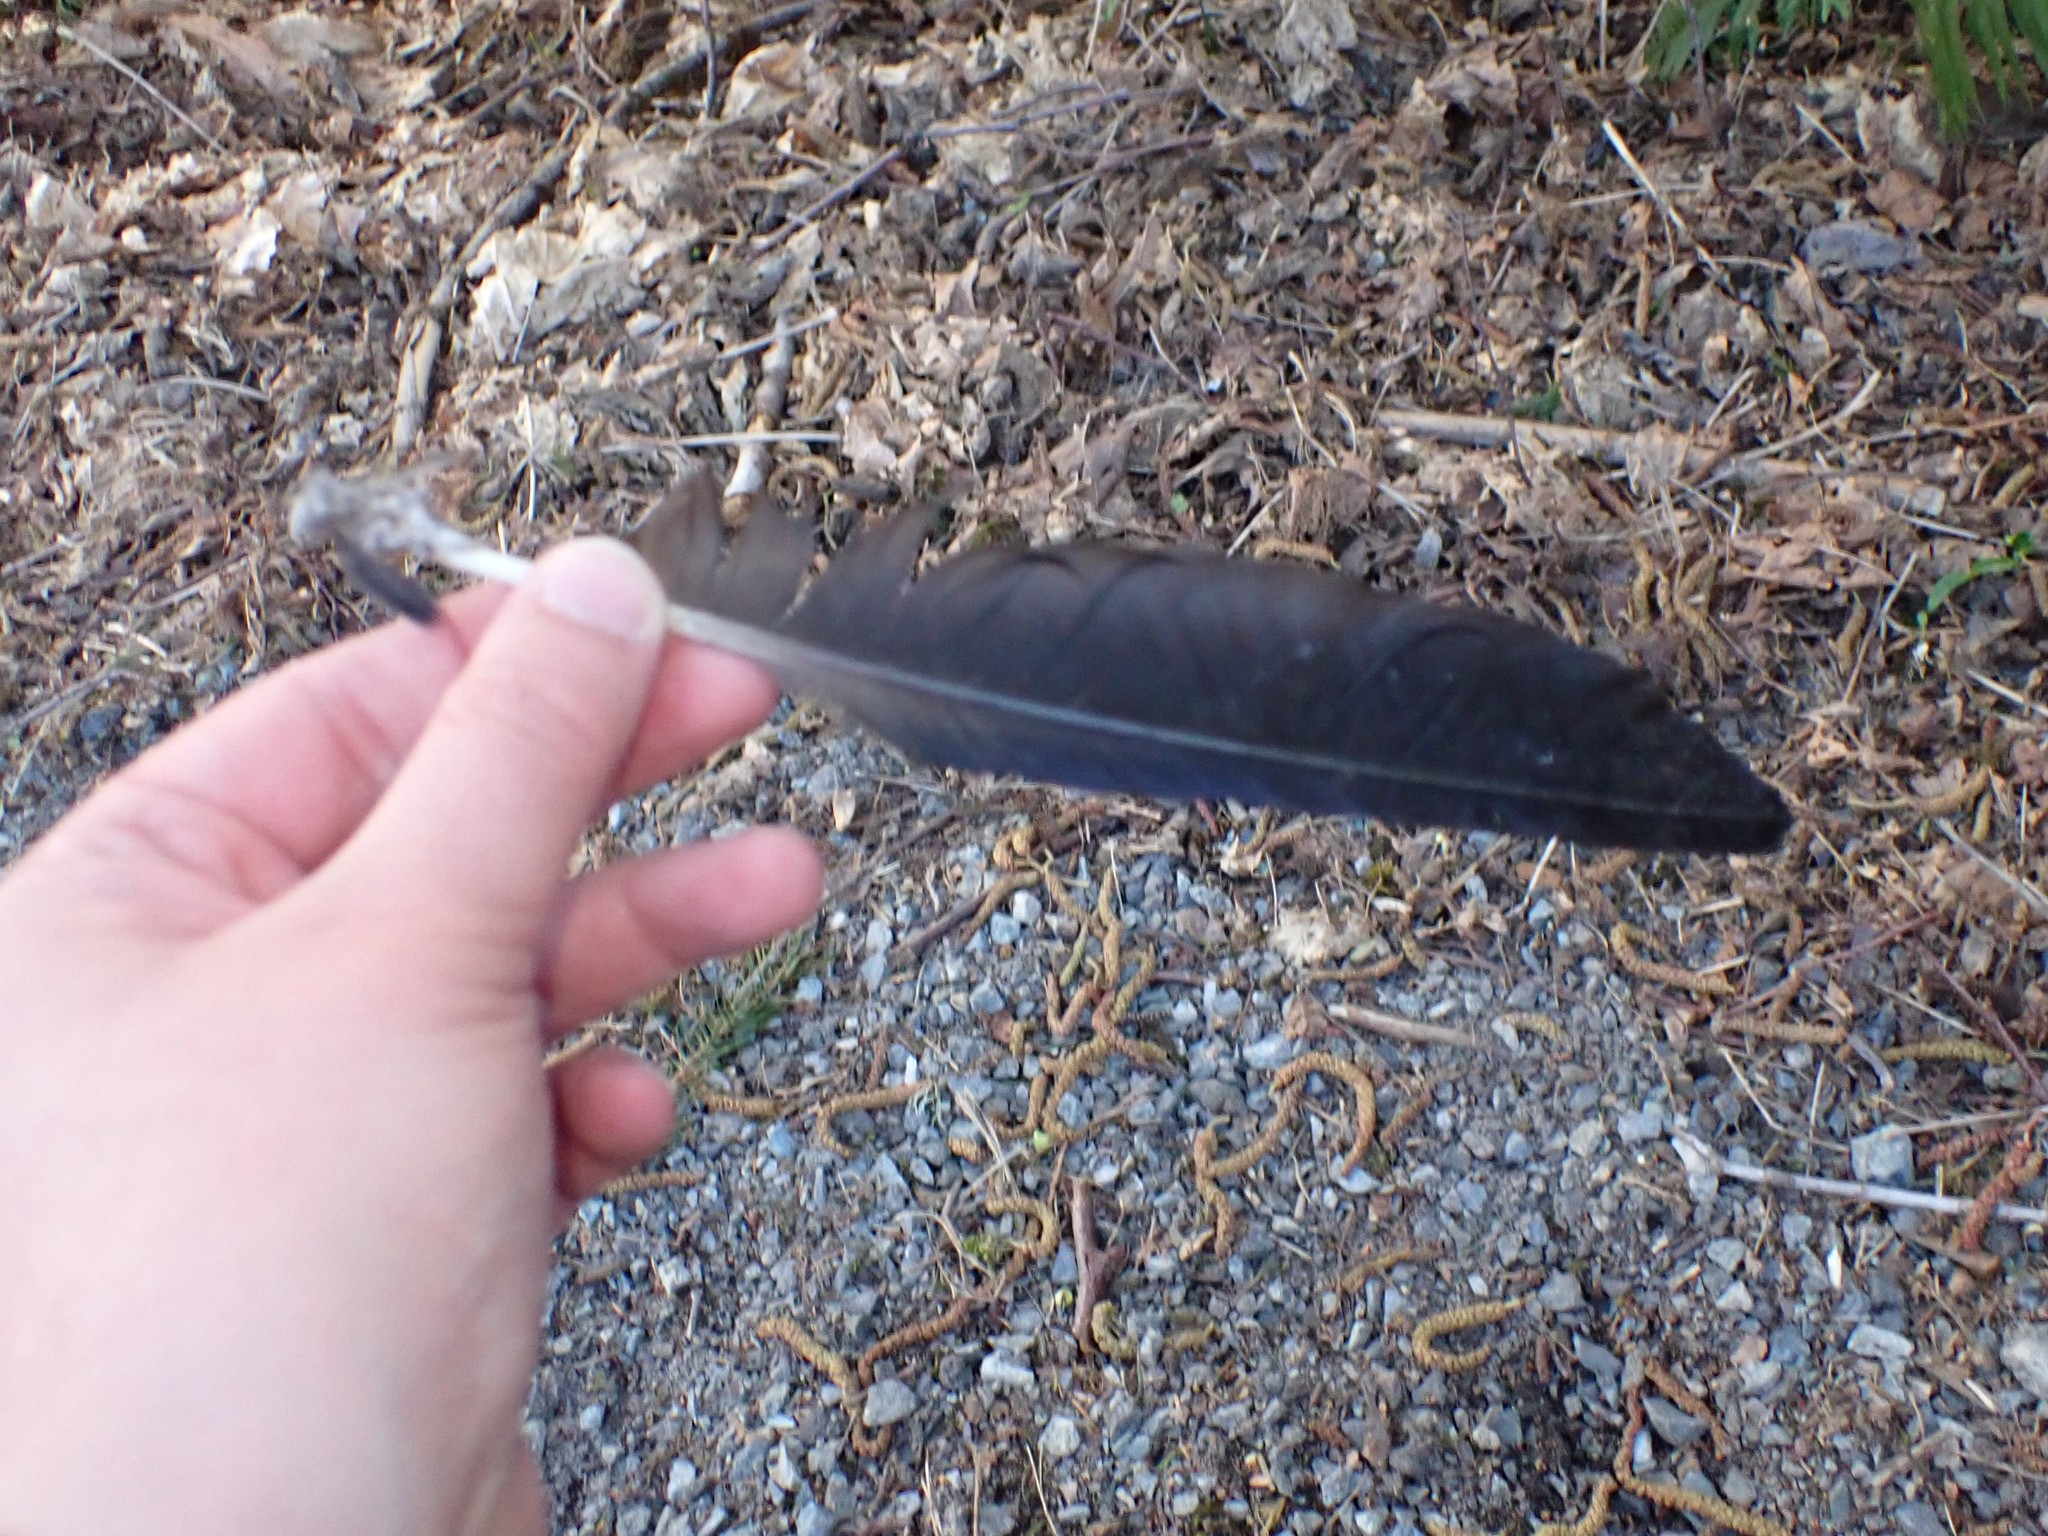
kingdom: Animalia
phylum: Chordata
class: Aves
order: Passeriformes
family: Corvidae
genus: Corvus
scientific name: Corvus brachyrhynchos
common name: American crow
